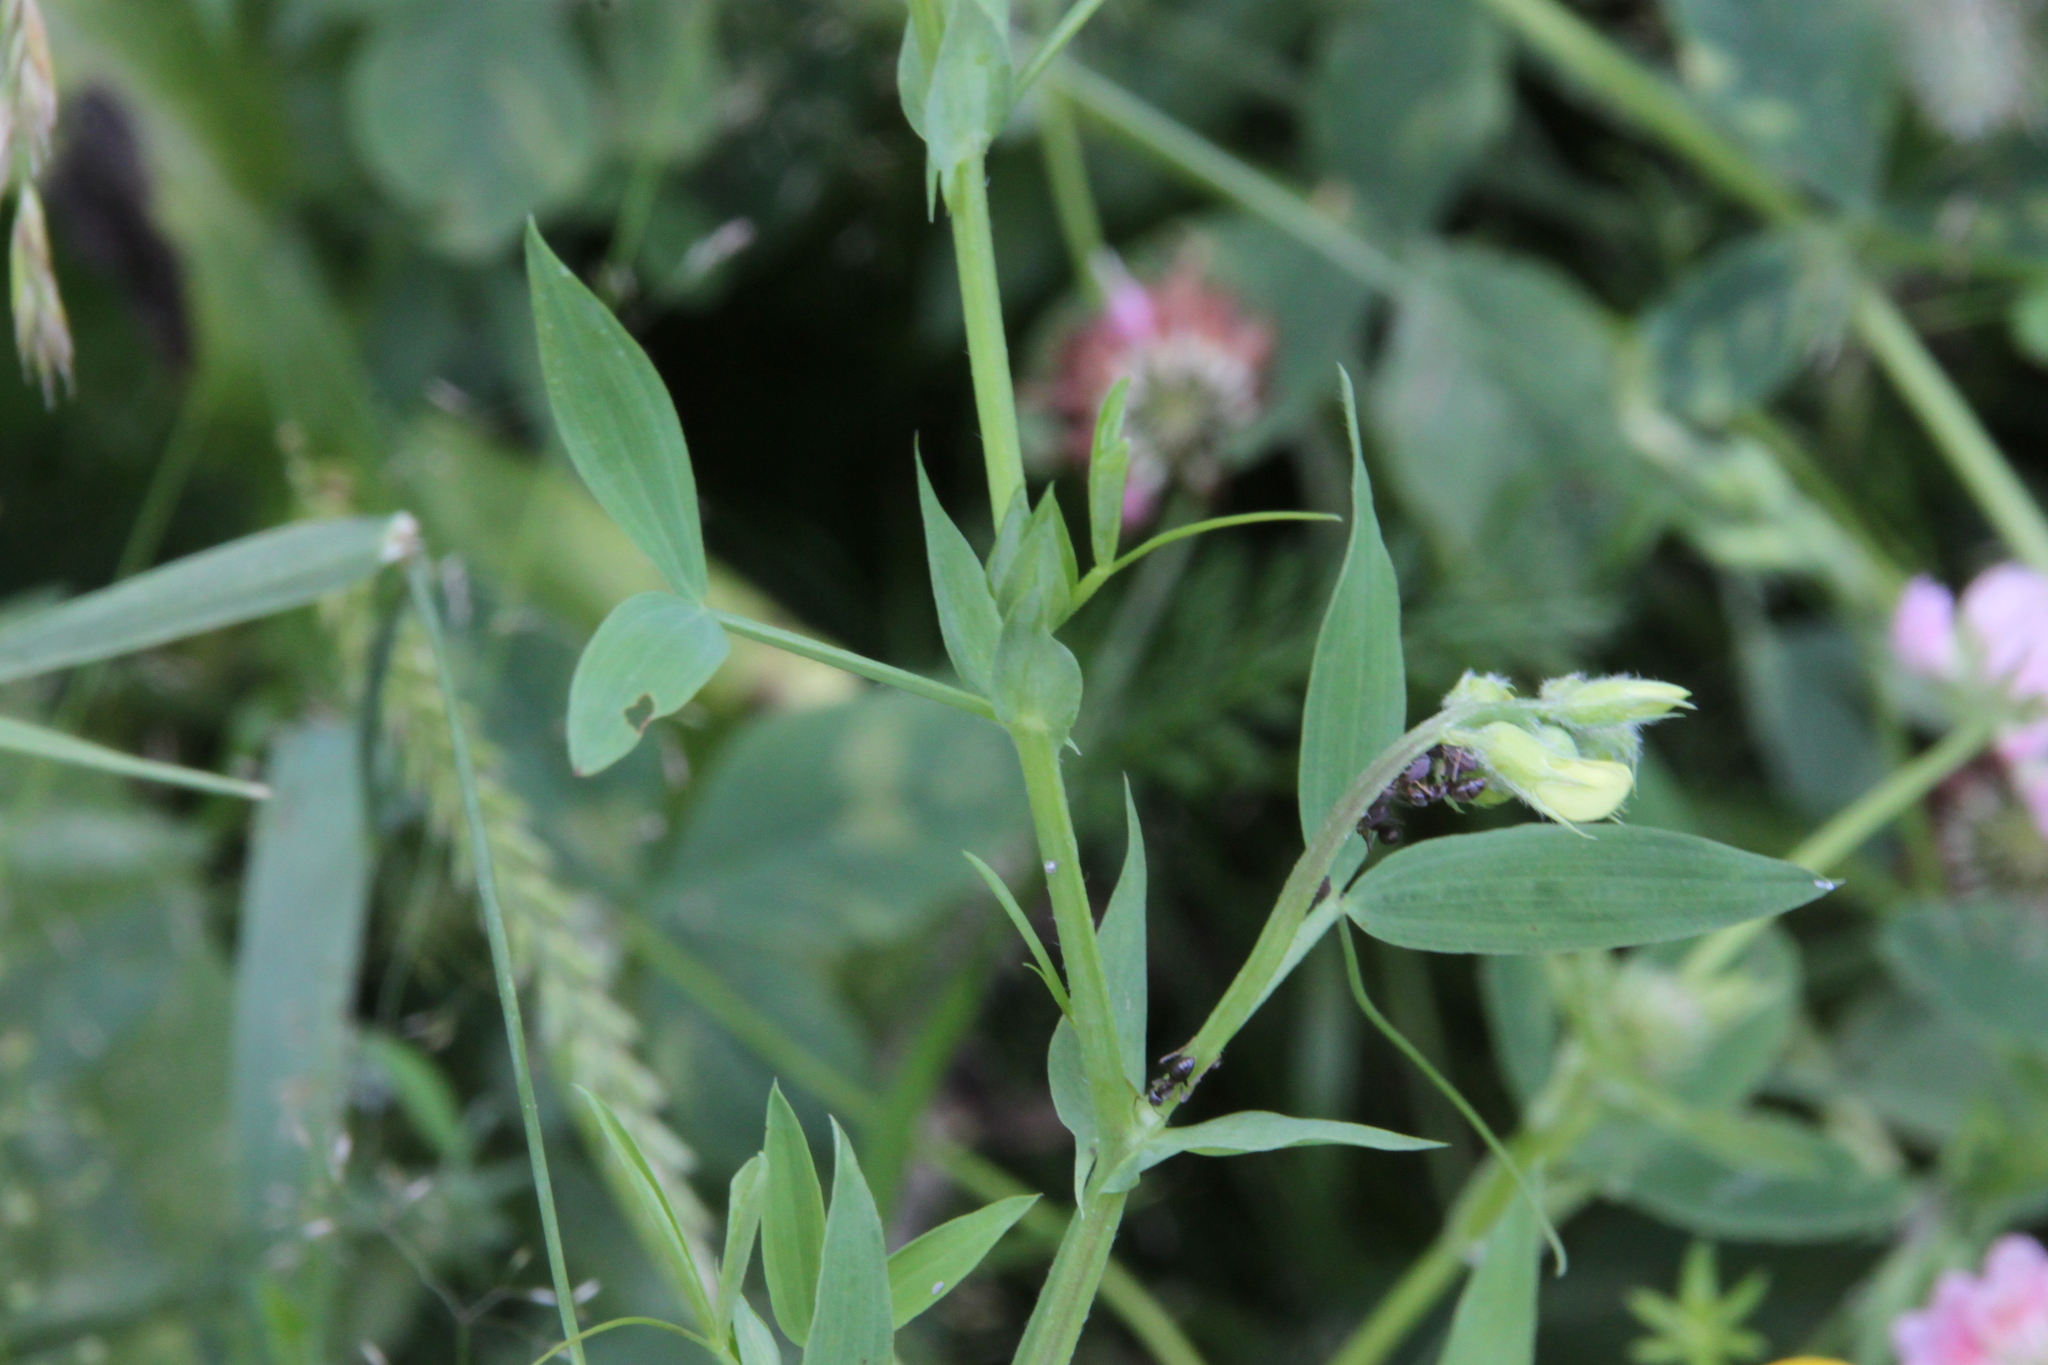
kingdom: Plantae
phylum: Tracheophyta
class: Magnoliopsida
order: Fabales
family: Fabaceae
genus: Lathyrus
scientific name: Lathyrus pratensis
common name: Meadow vetchling
